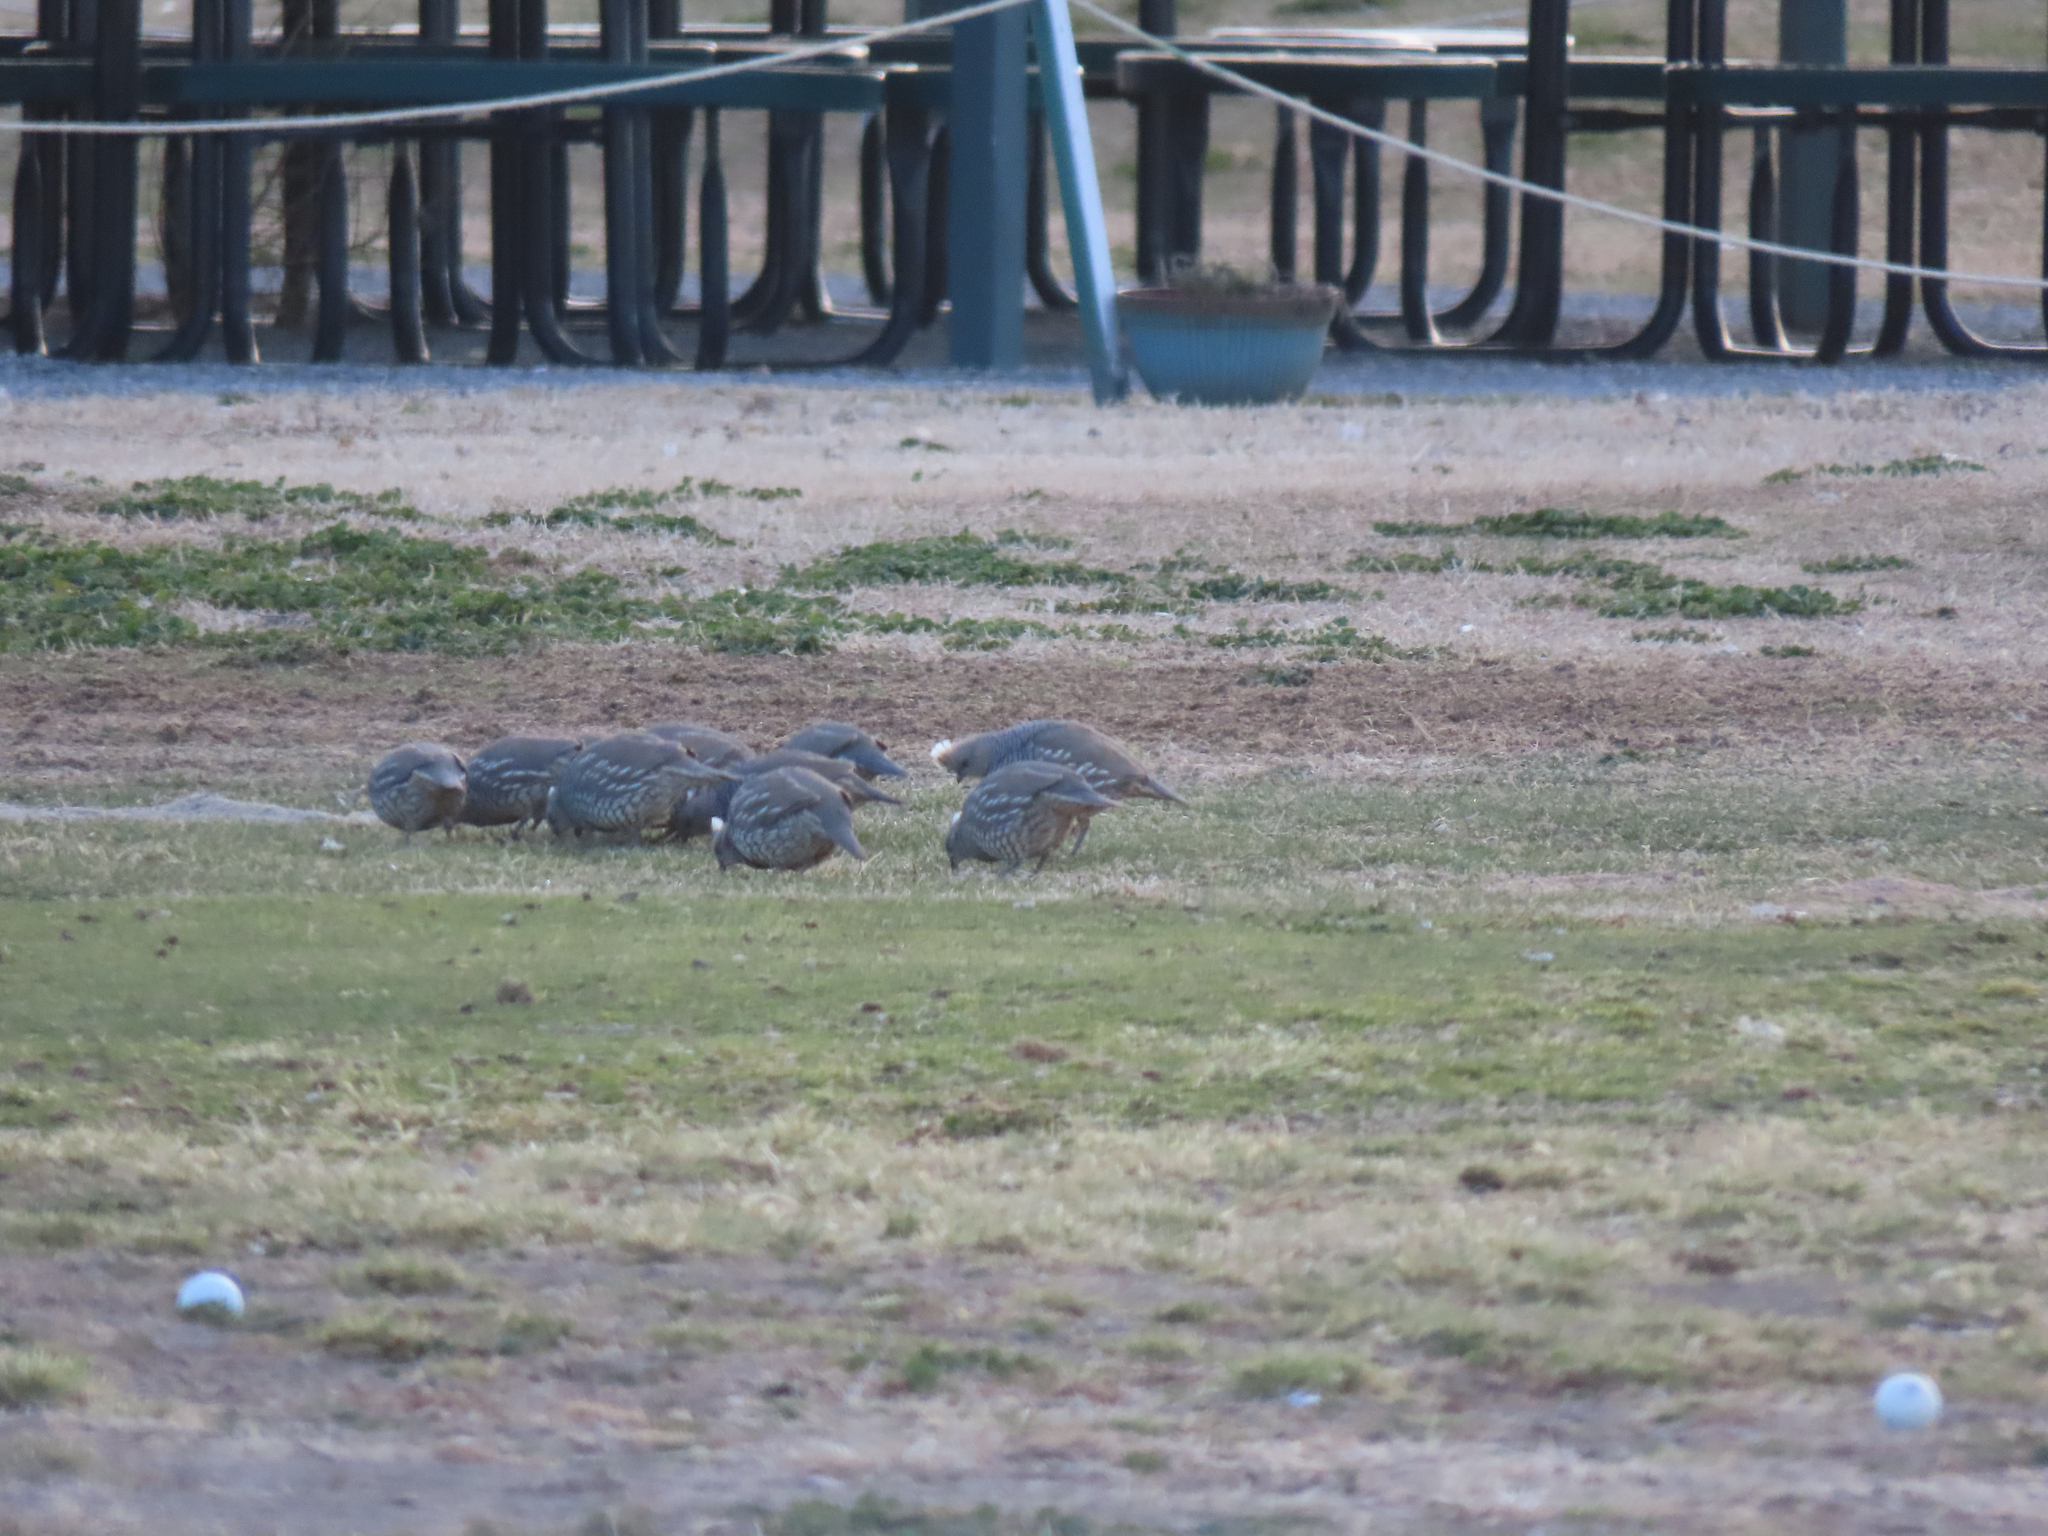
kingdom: Animalia
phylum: Chordata
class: Aves
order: Galliformes
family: Odontophoridae
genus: Callipepla
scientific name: Callipepla squamata
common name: Scaled quail
